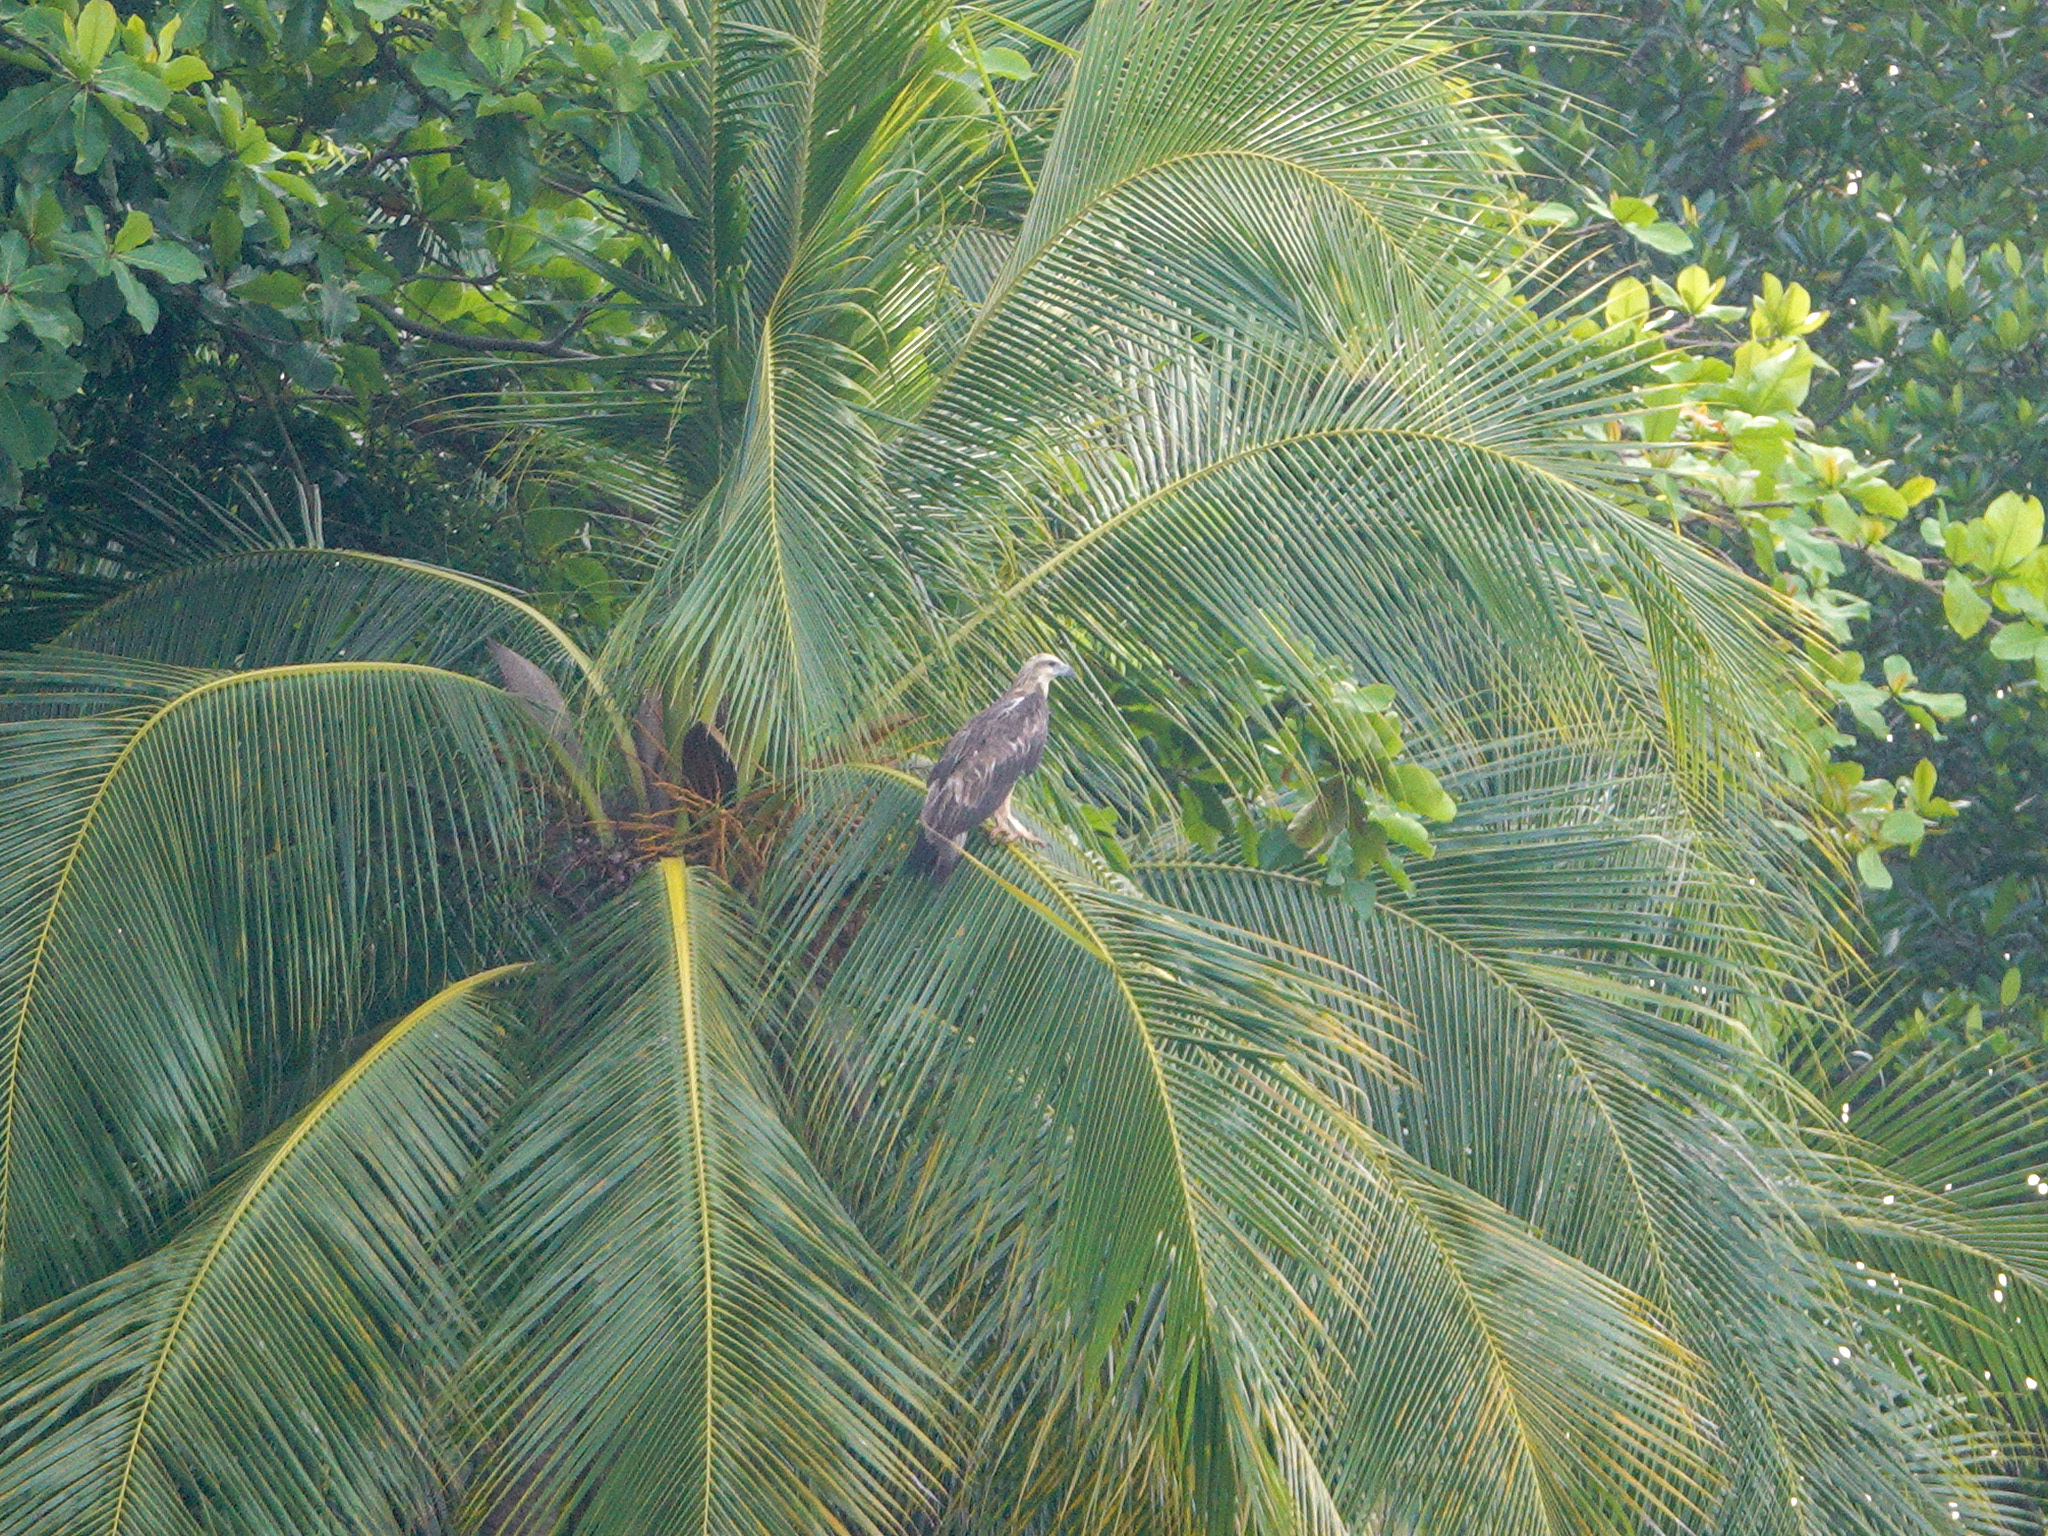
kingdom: Animalia
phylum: Chordata
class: Aves
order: Accipitriformes
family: Accipitridae
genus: Haliaeetus
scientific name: Haliaeetus leucogaster
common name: White-bellied sea eagle
